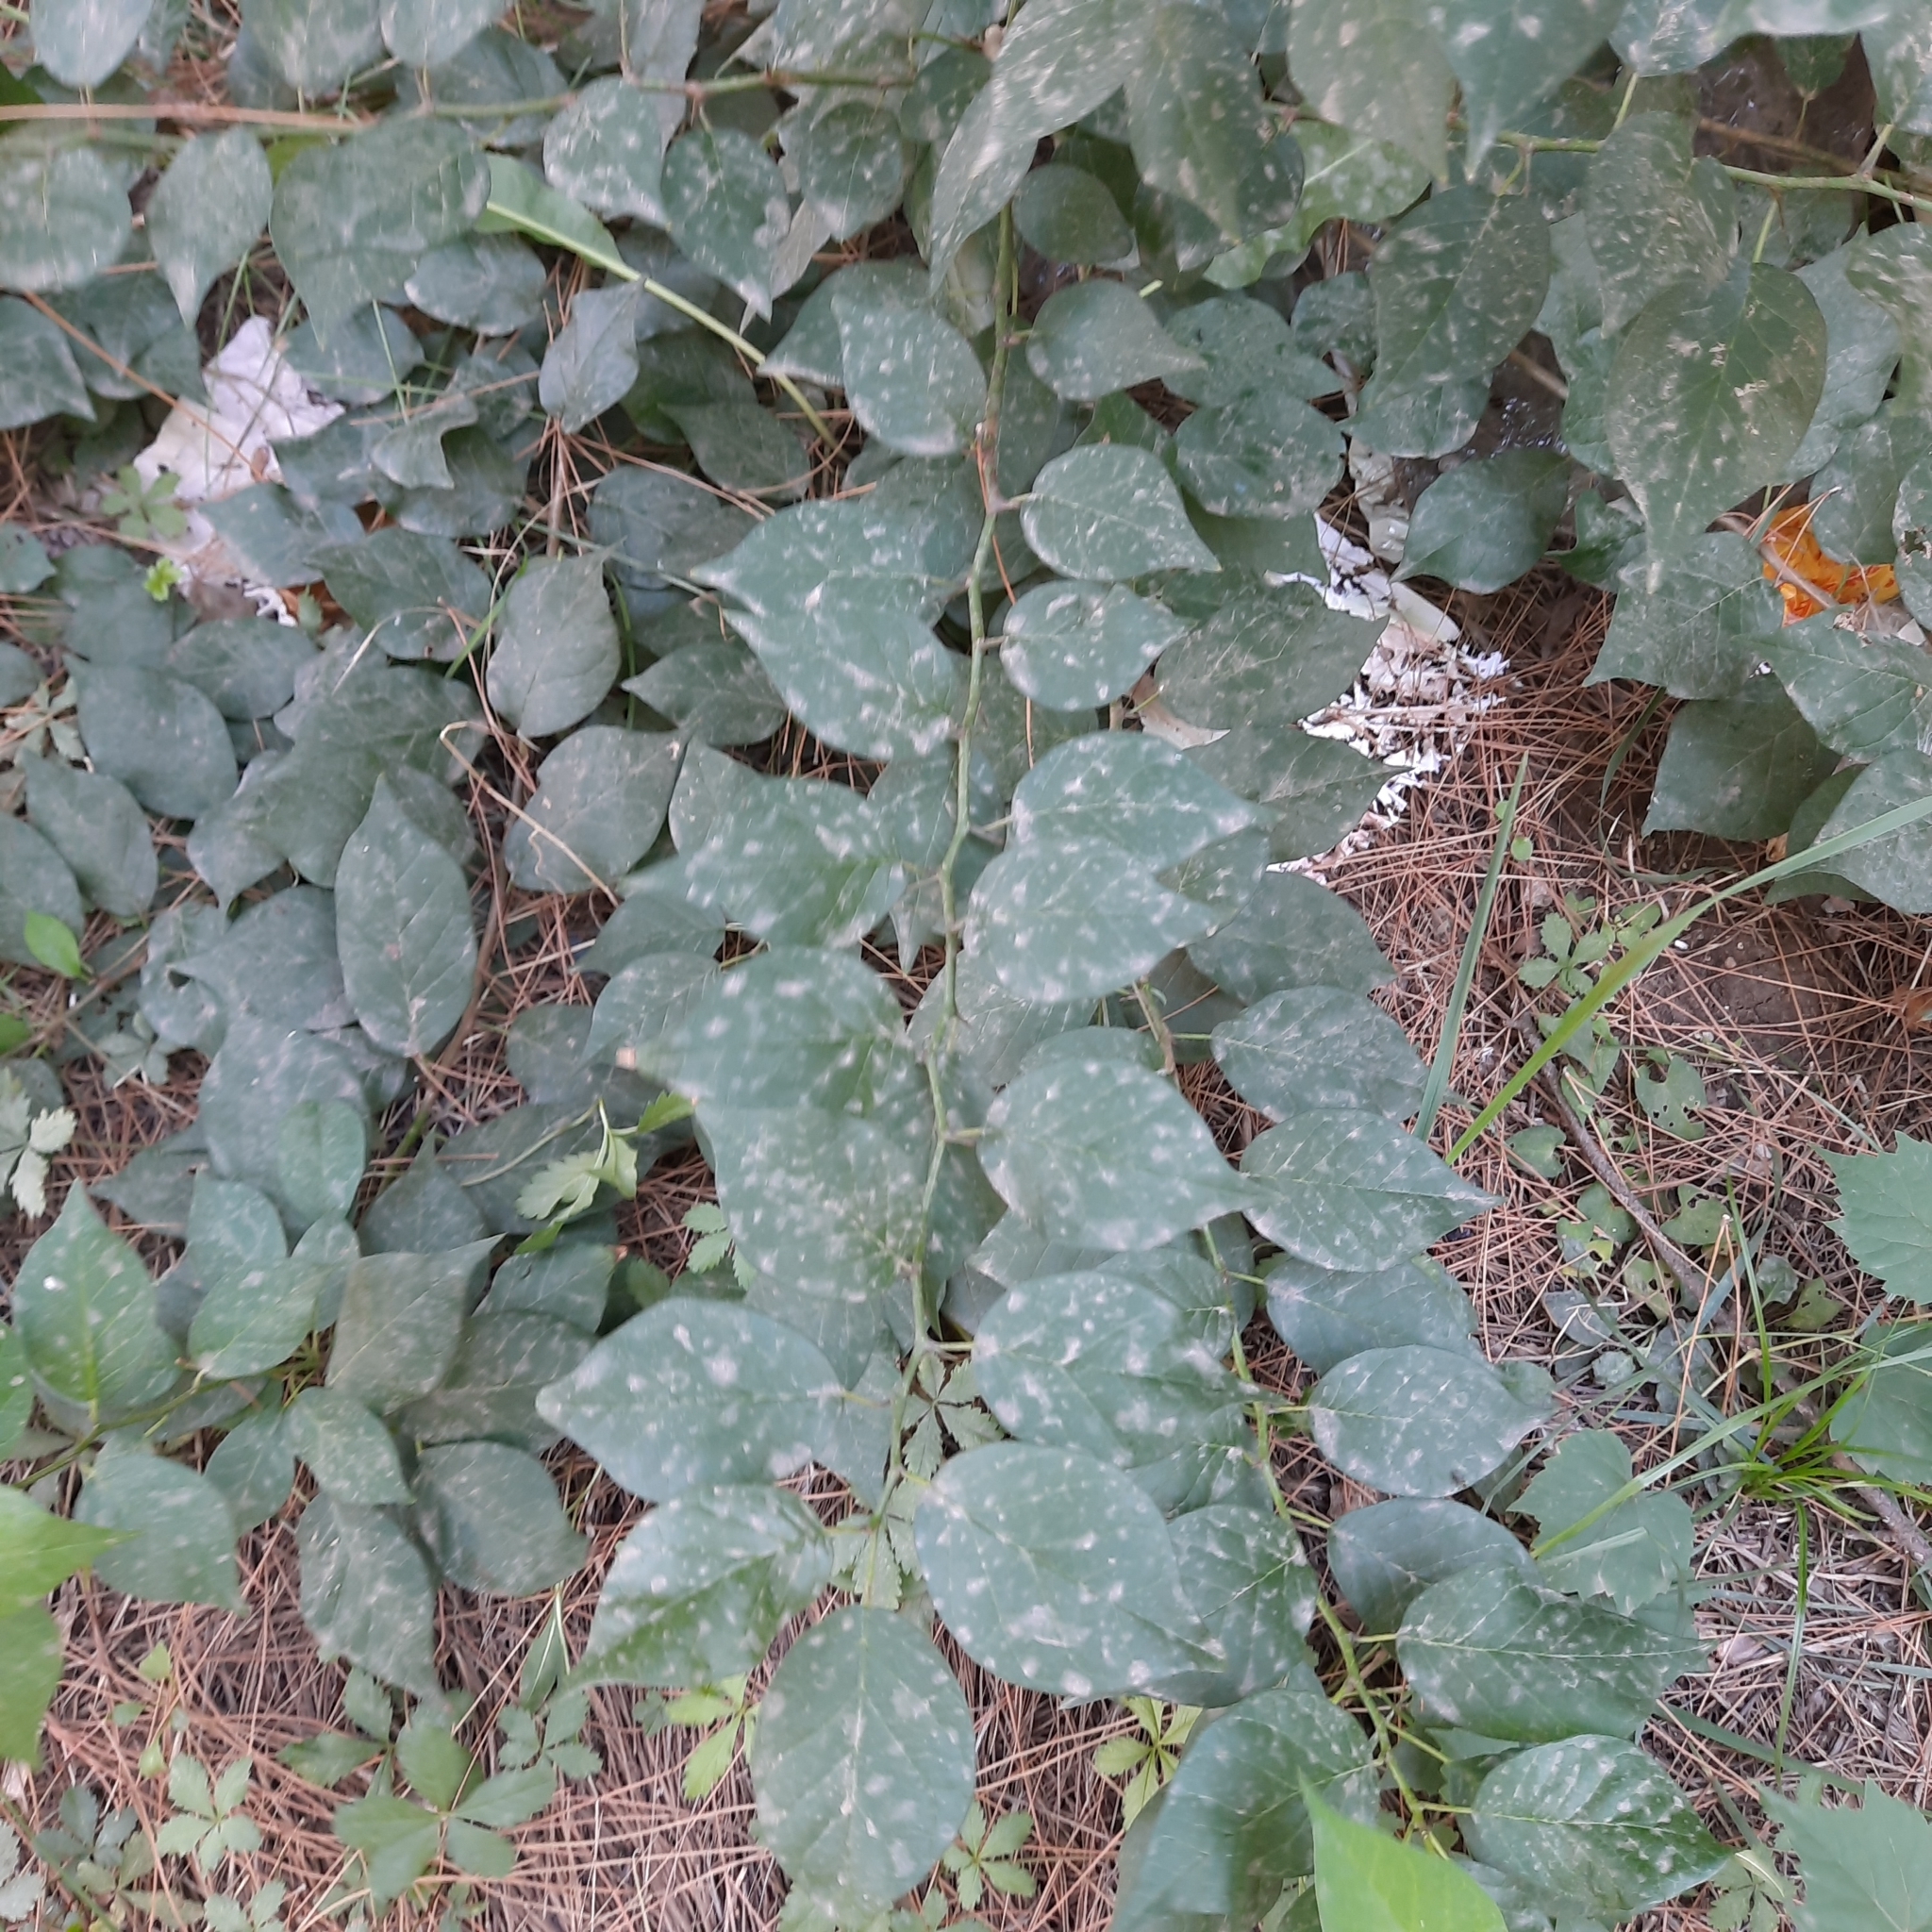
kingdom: Plantae
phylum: Tracheophyta
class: Magnoliopsida
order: Rosales
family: Moraceae
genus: Maclura
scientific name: Maclura pomifera
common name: Osage-orange
